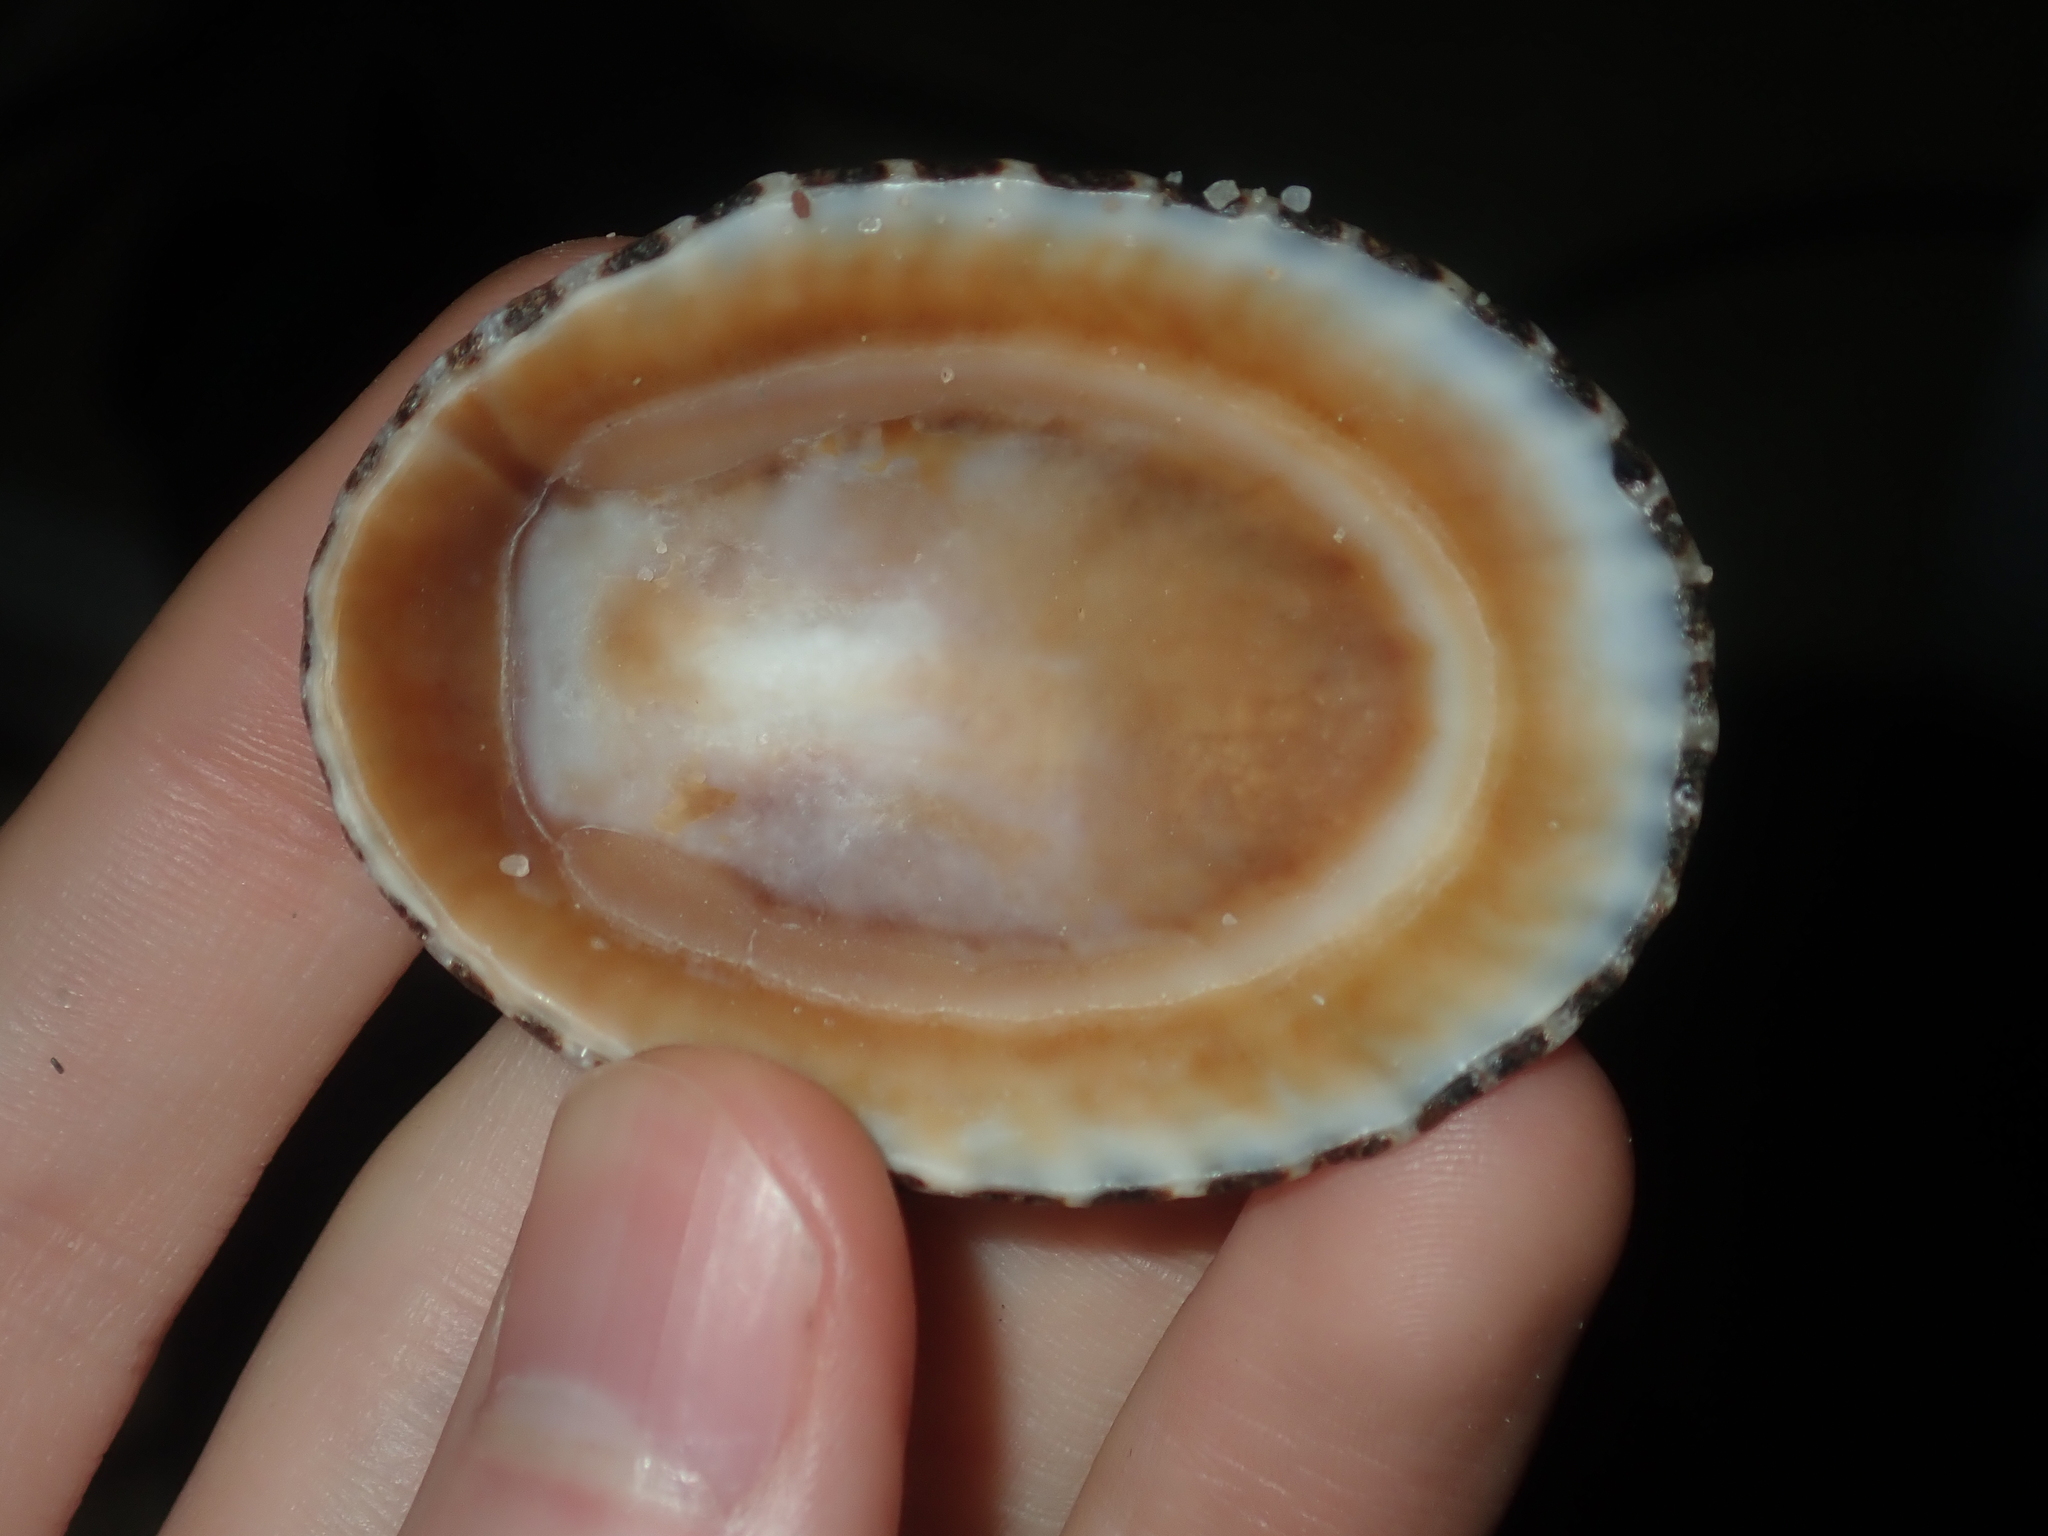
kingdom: Animalia
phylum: Mollusca
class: Gastropoda
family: Patellidae
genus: Scutellastra
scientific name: Scutellastra laticostata
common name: Giant limpet
